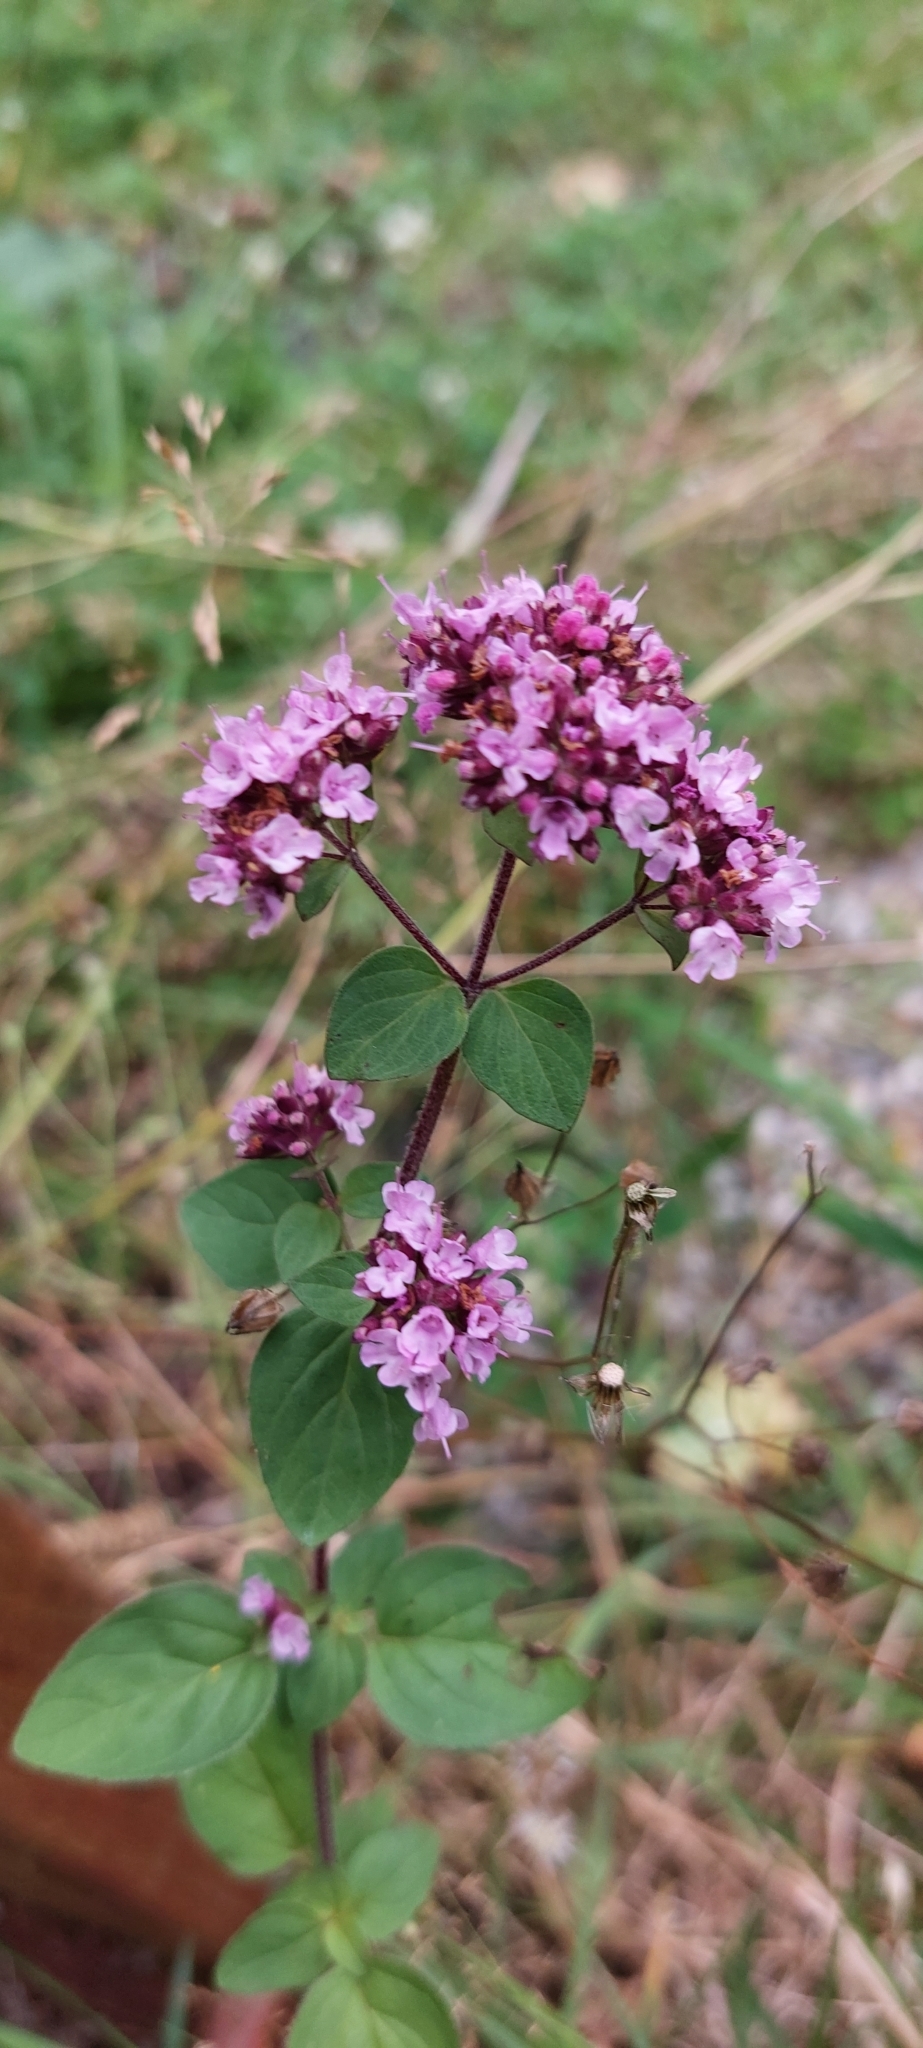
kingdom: Plantae
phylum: Tracheophyta
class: Magnoliopsida
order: Lamiales
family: Lamiaceae
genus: Origanum
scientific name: Origanum vulgare
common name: Wild marjoram
